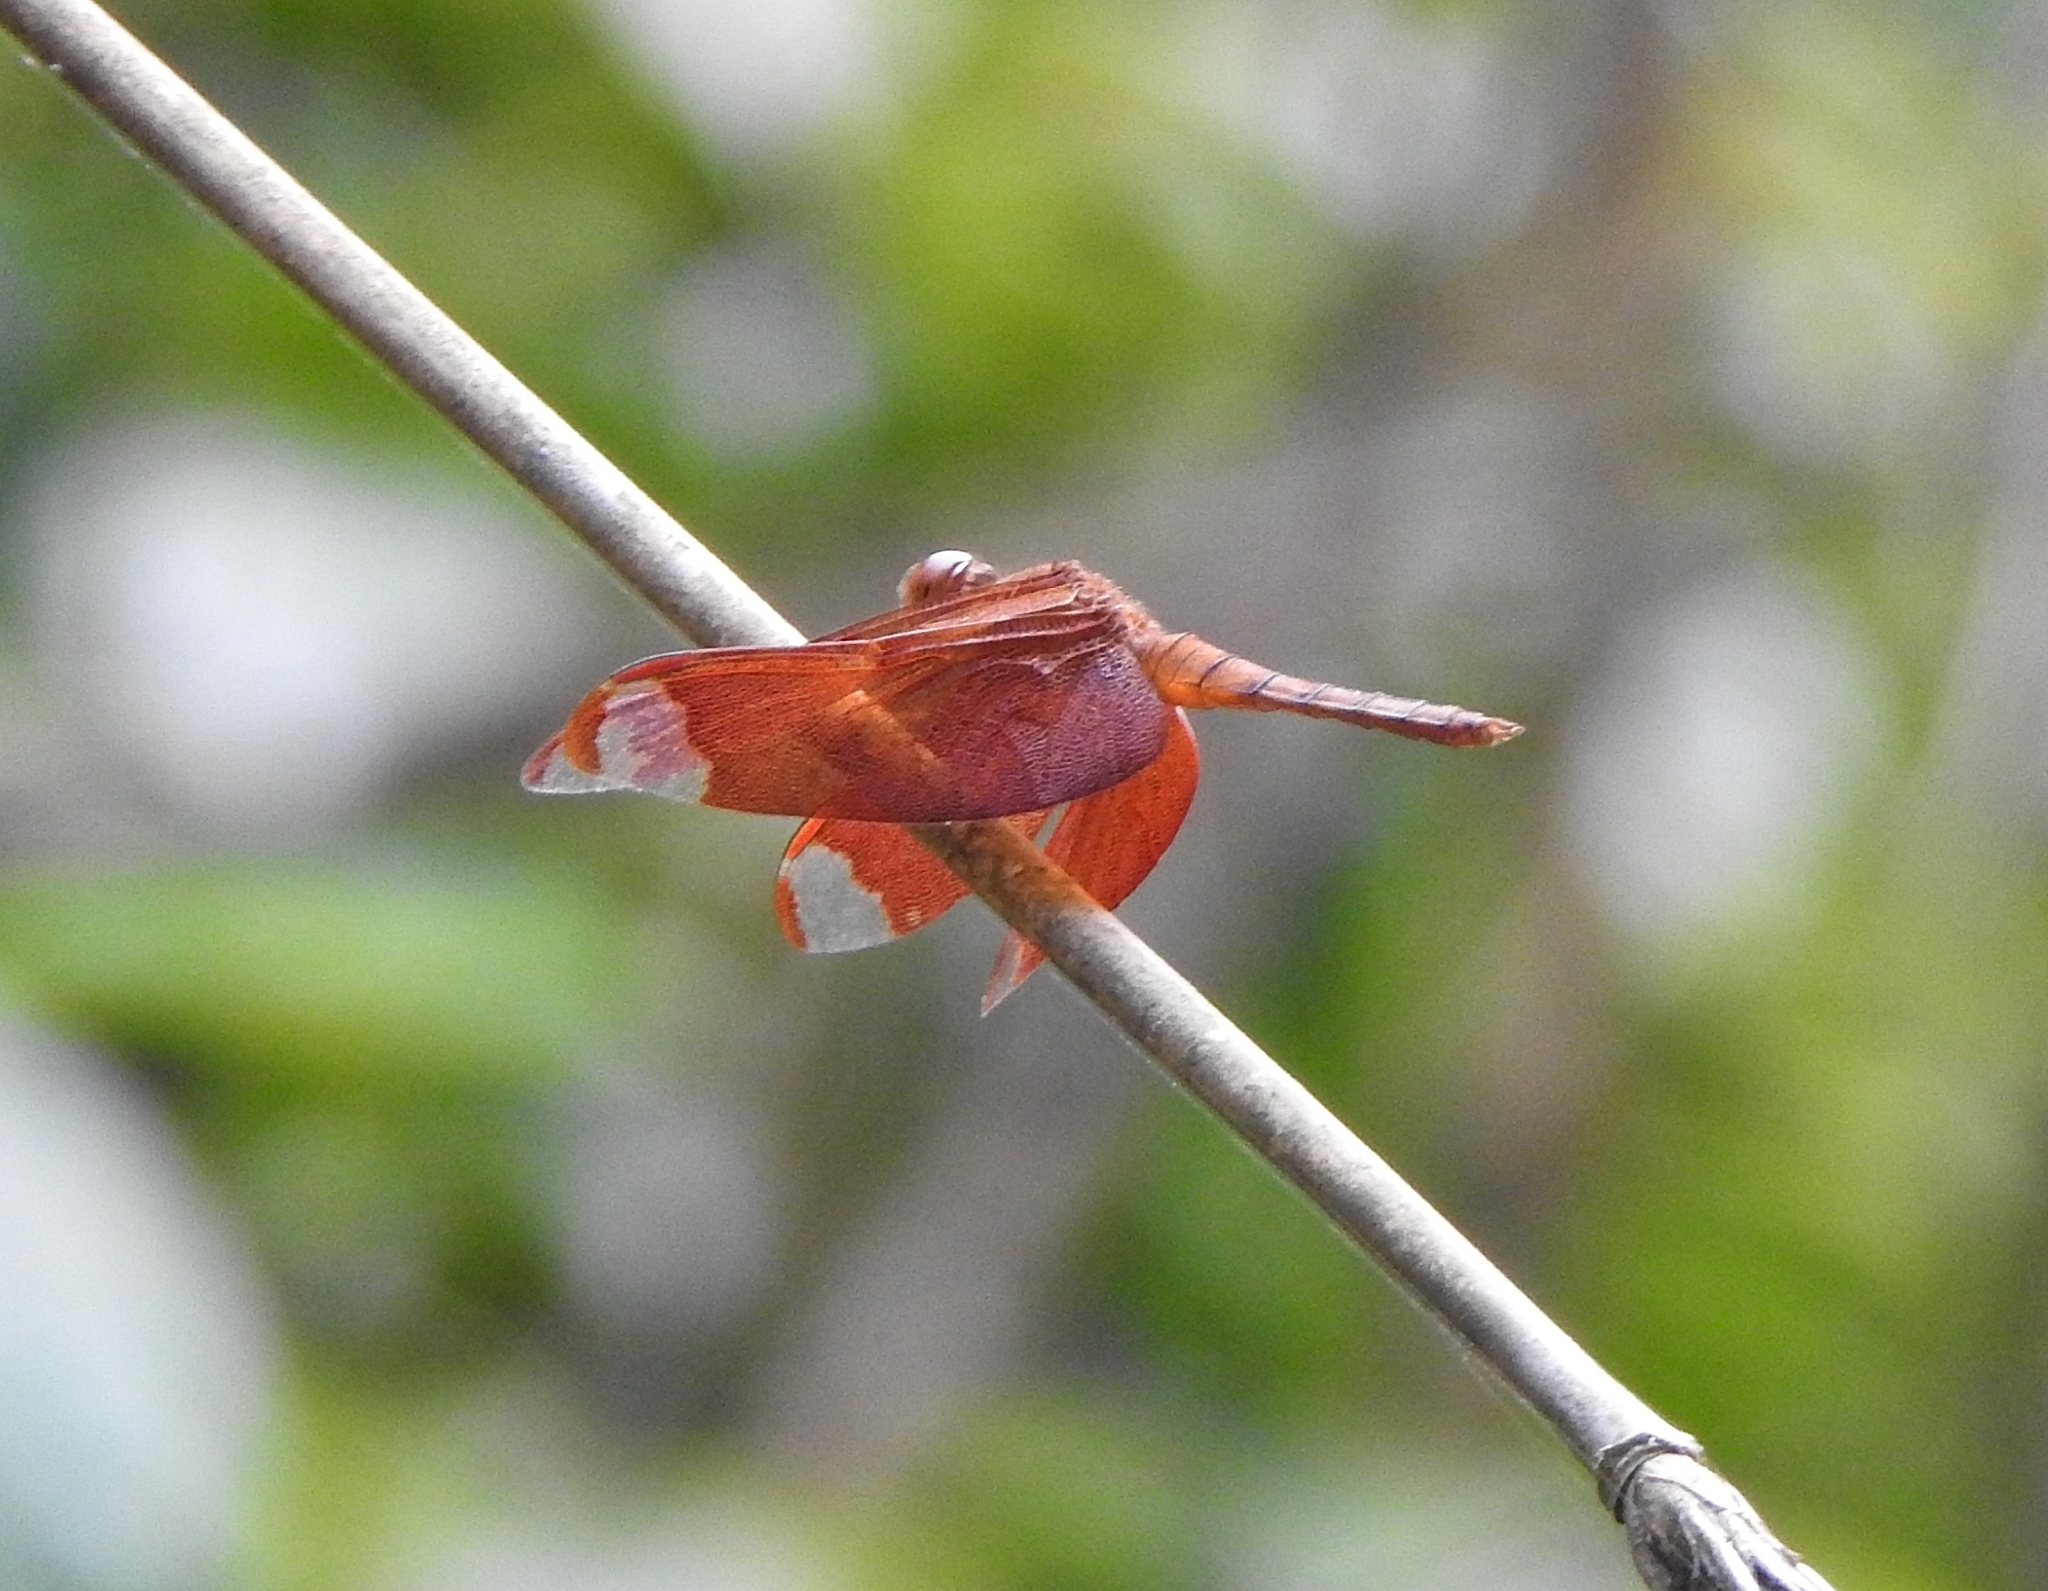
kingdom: Animalia
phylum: Arthropoda
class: Insecta
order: Odonata
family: Libellulidae
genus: Neurothemis
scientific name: Neurothemis fulvia
